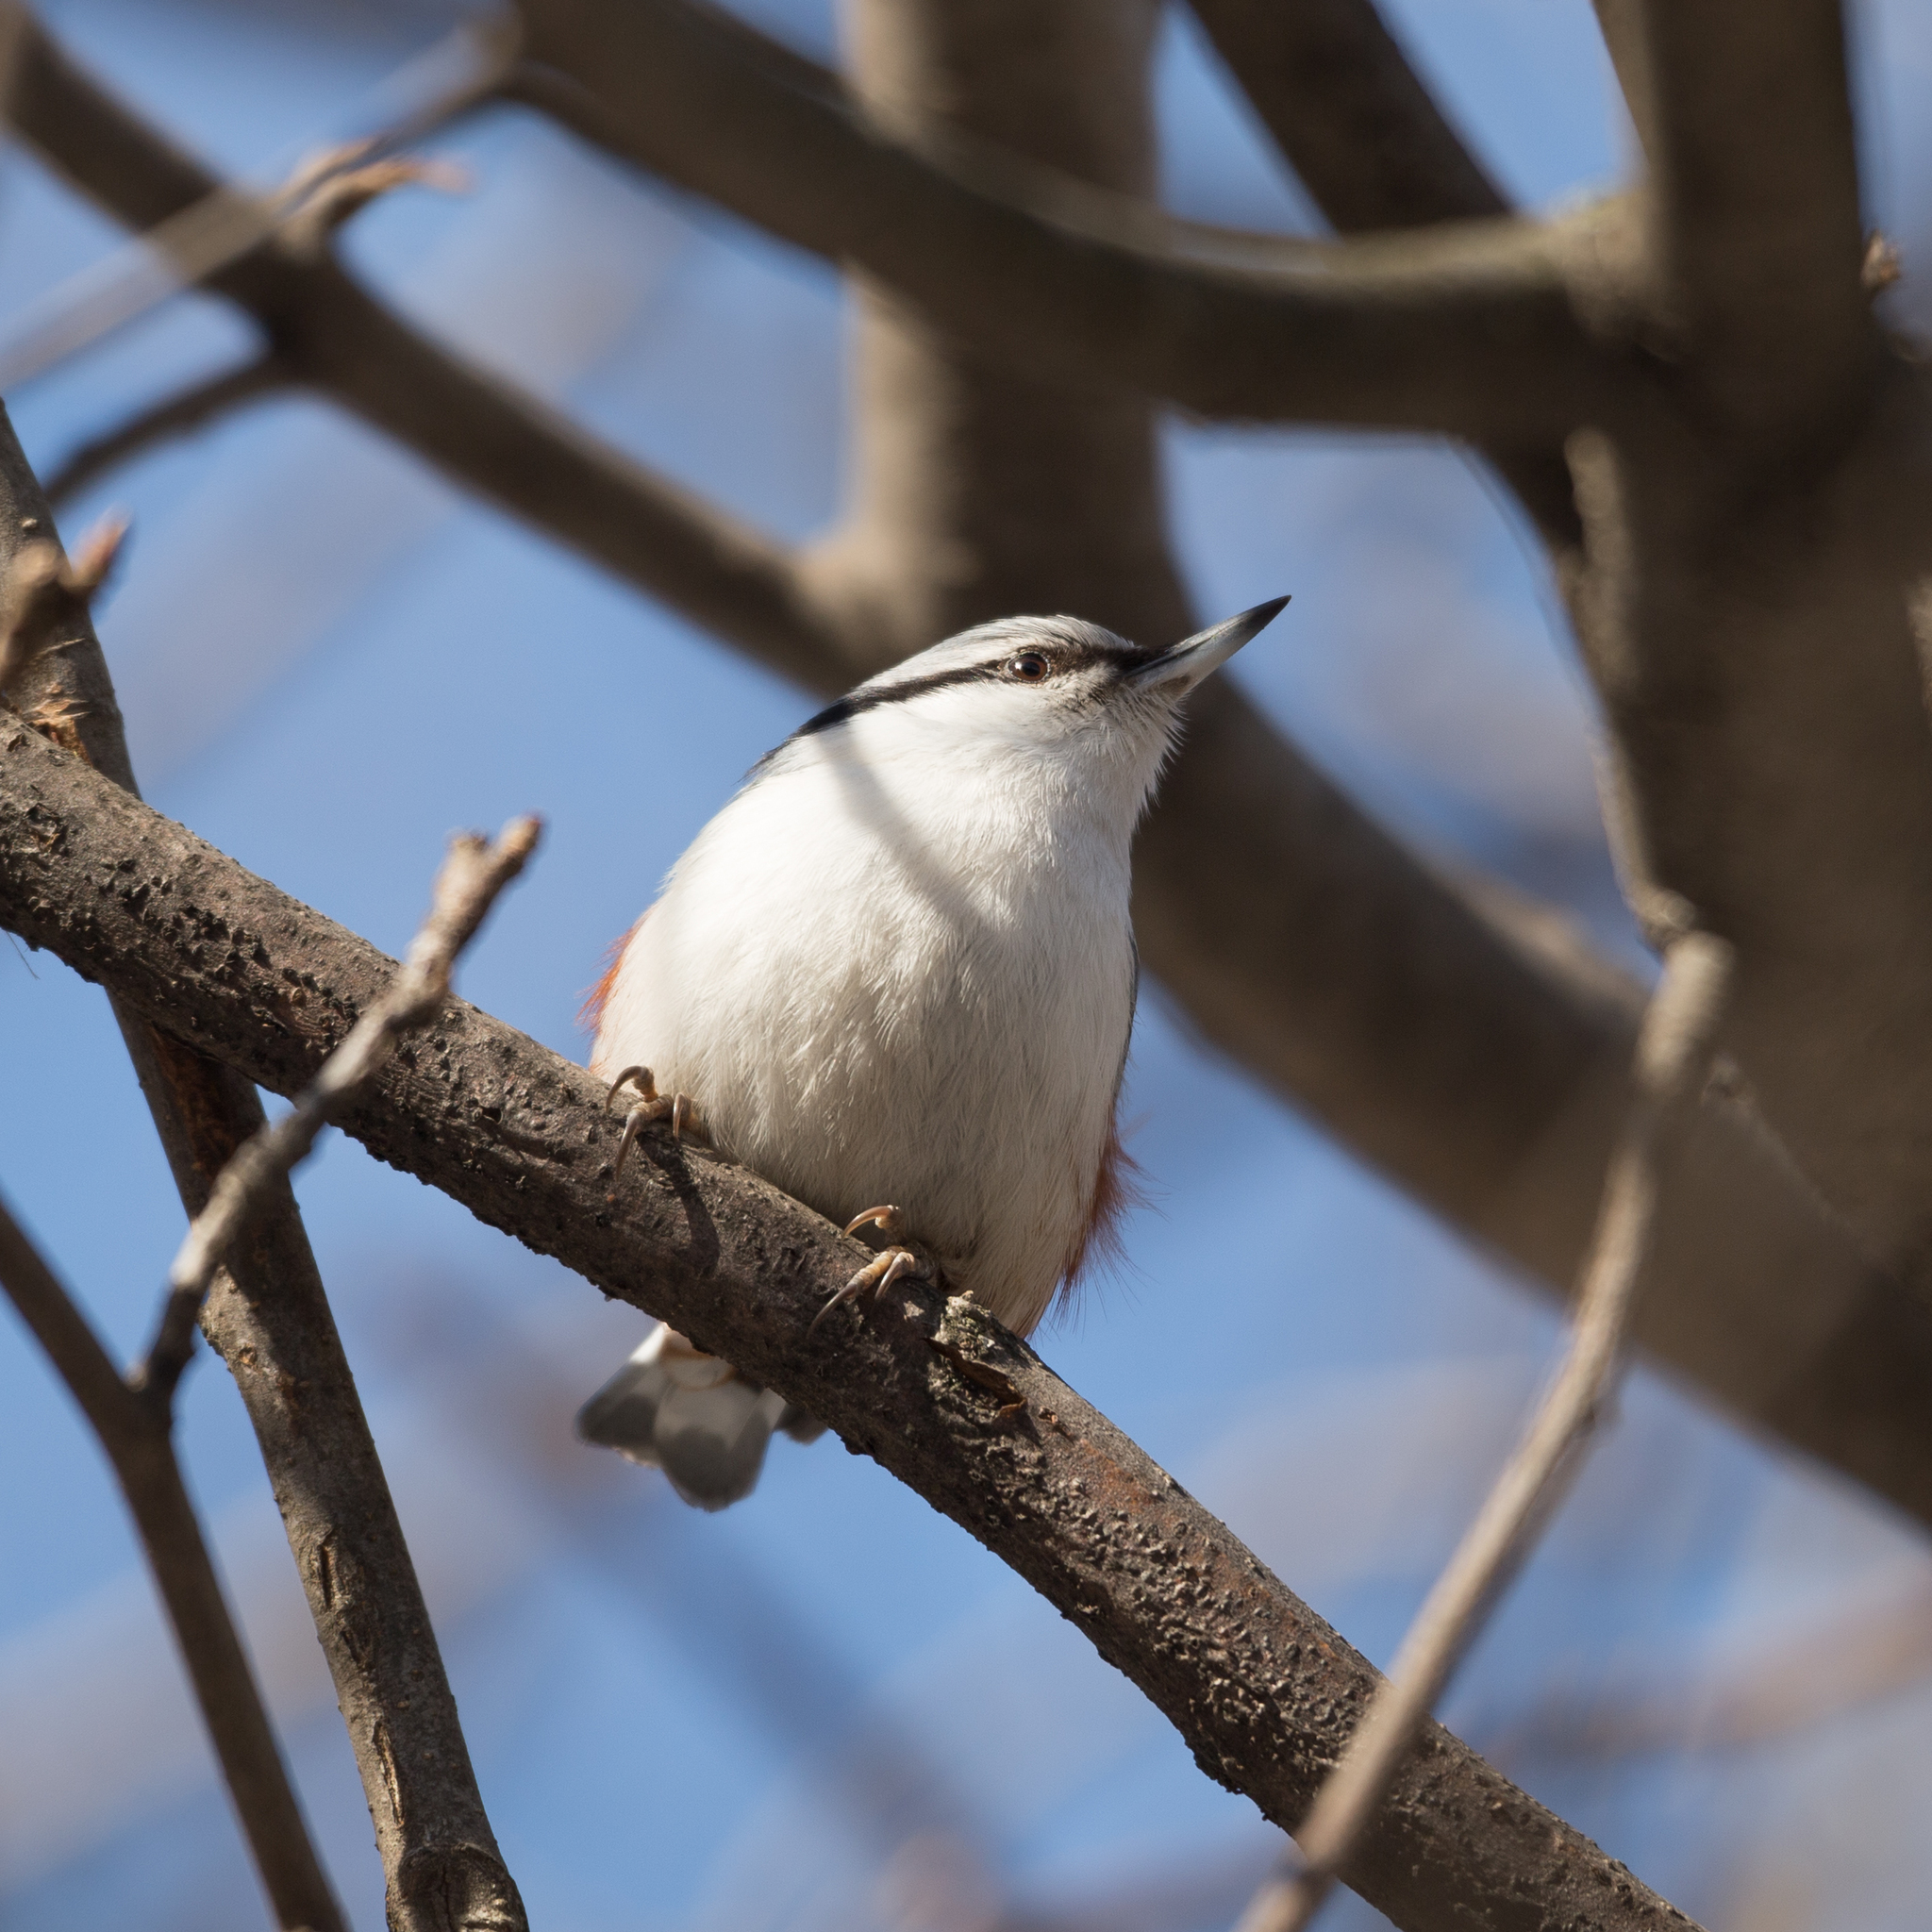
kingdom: Animalia
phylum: Chordata
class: Aves
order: Passeriformes
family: Sittidae
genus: Sitta
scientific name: Sitta europaea
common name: Eurasian nuthatch
